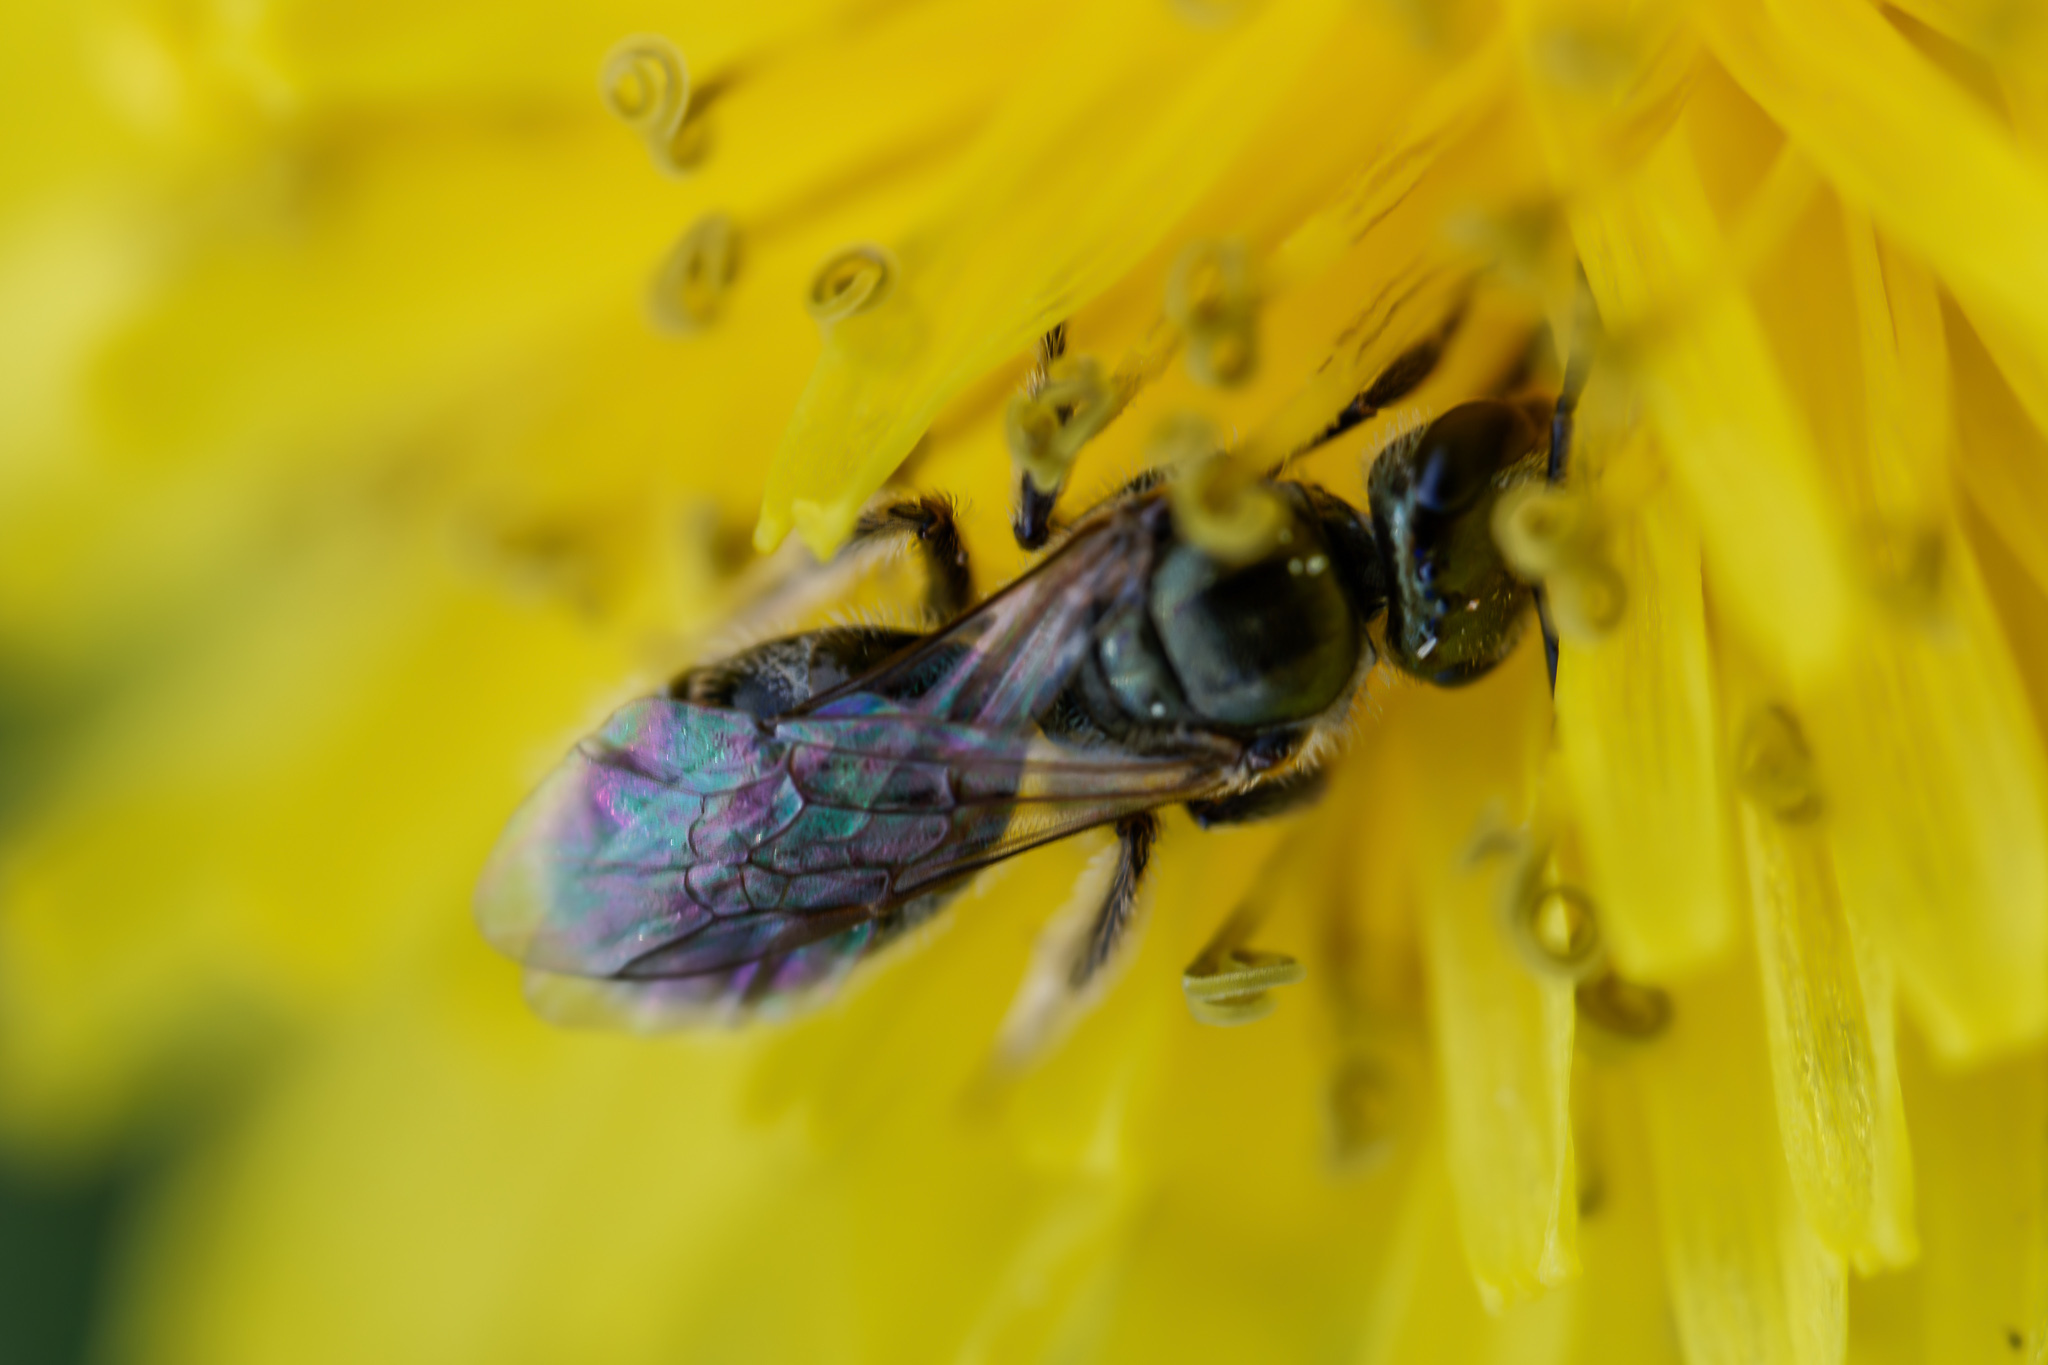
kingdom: Animalia
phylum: Arthropoda
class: Insecta
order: Hymenoptera
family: Halictidae
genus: Dialictus
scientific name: Dialictus
